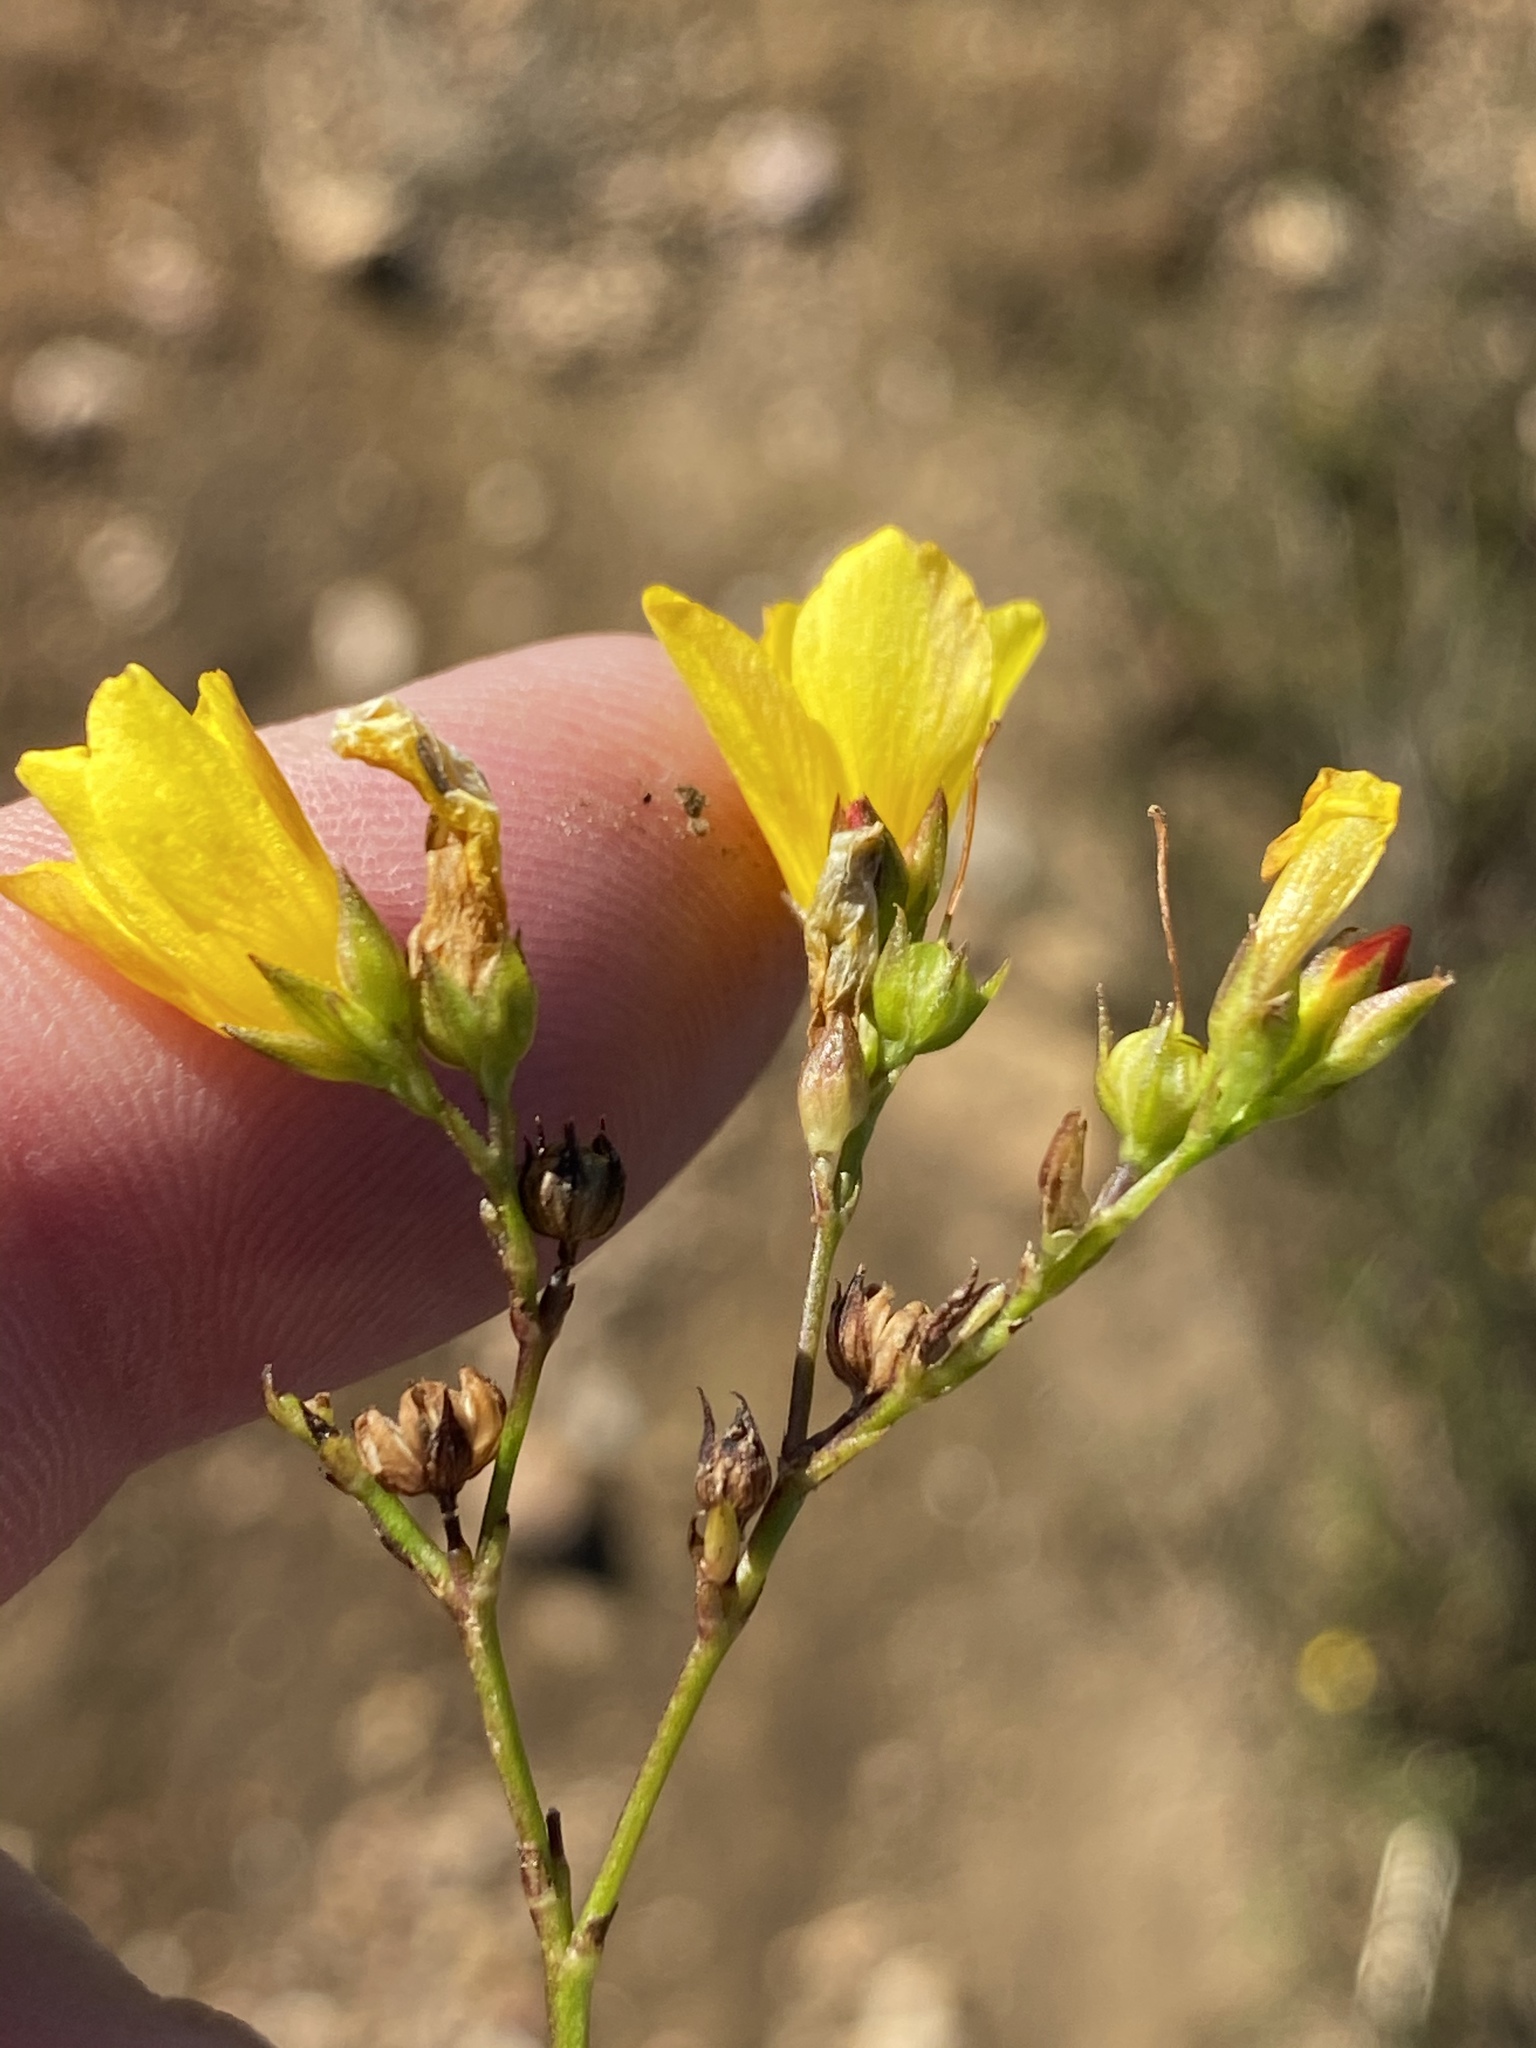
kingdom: Plantae
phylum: Tracheophyta
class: Magnoliopsida
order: Malpighiales
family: Linaceae
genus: Linum
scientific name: Linum africanum
